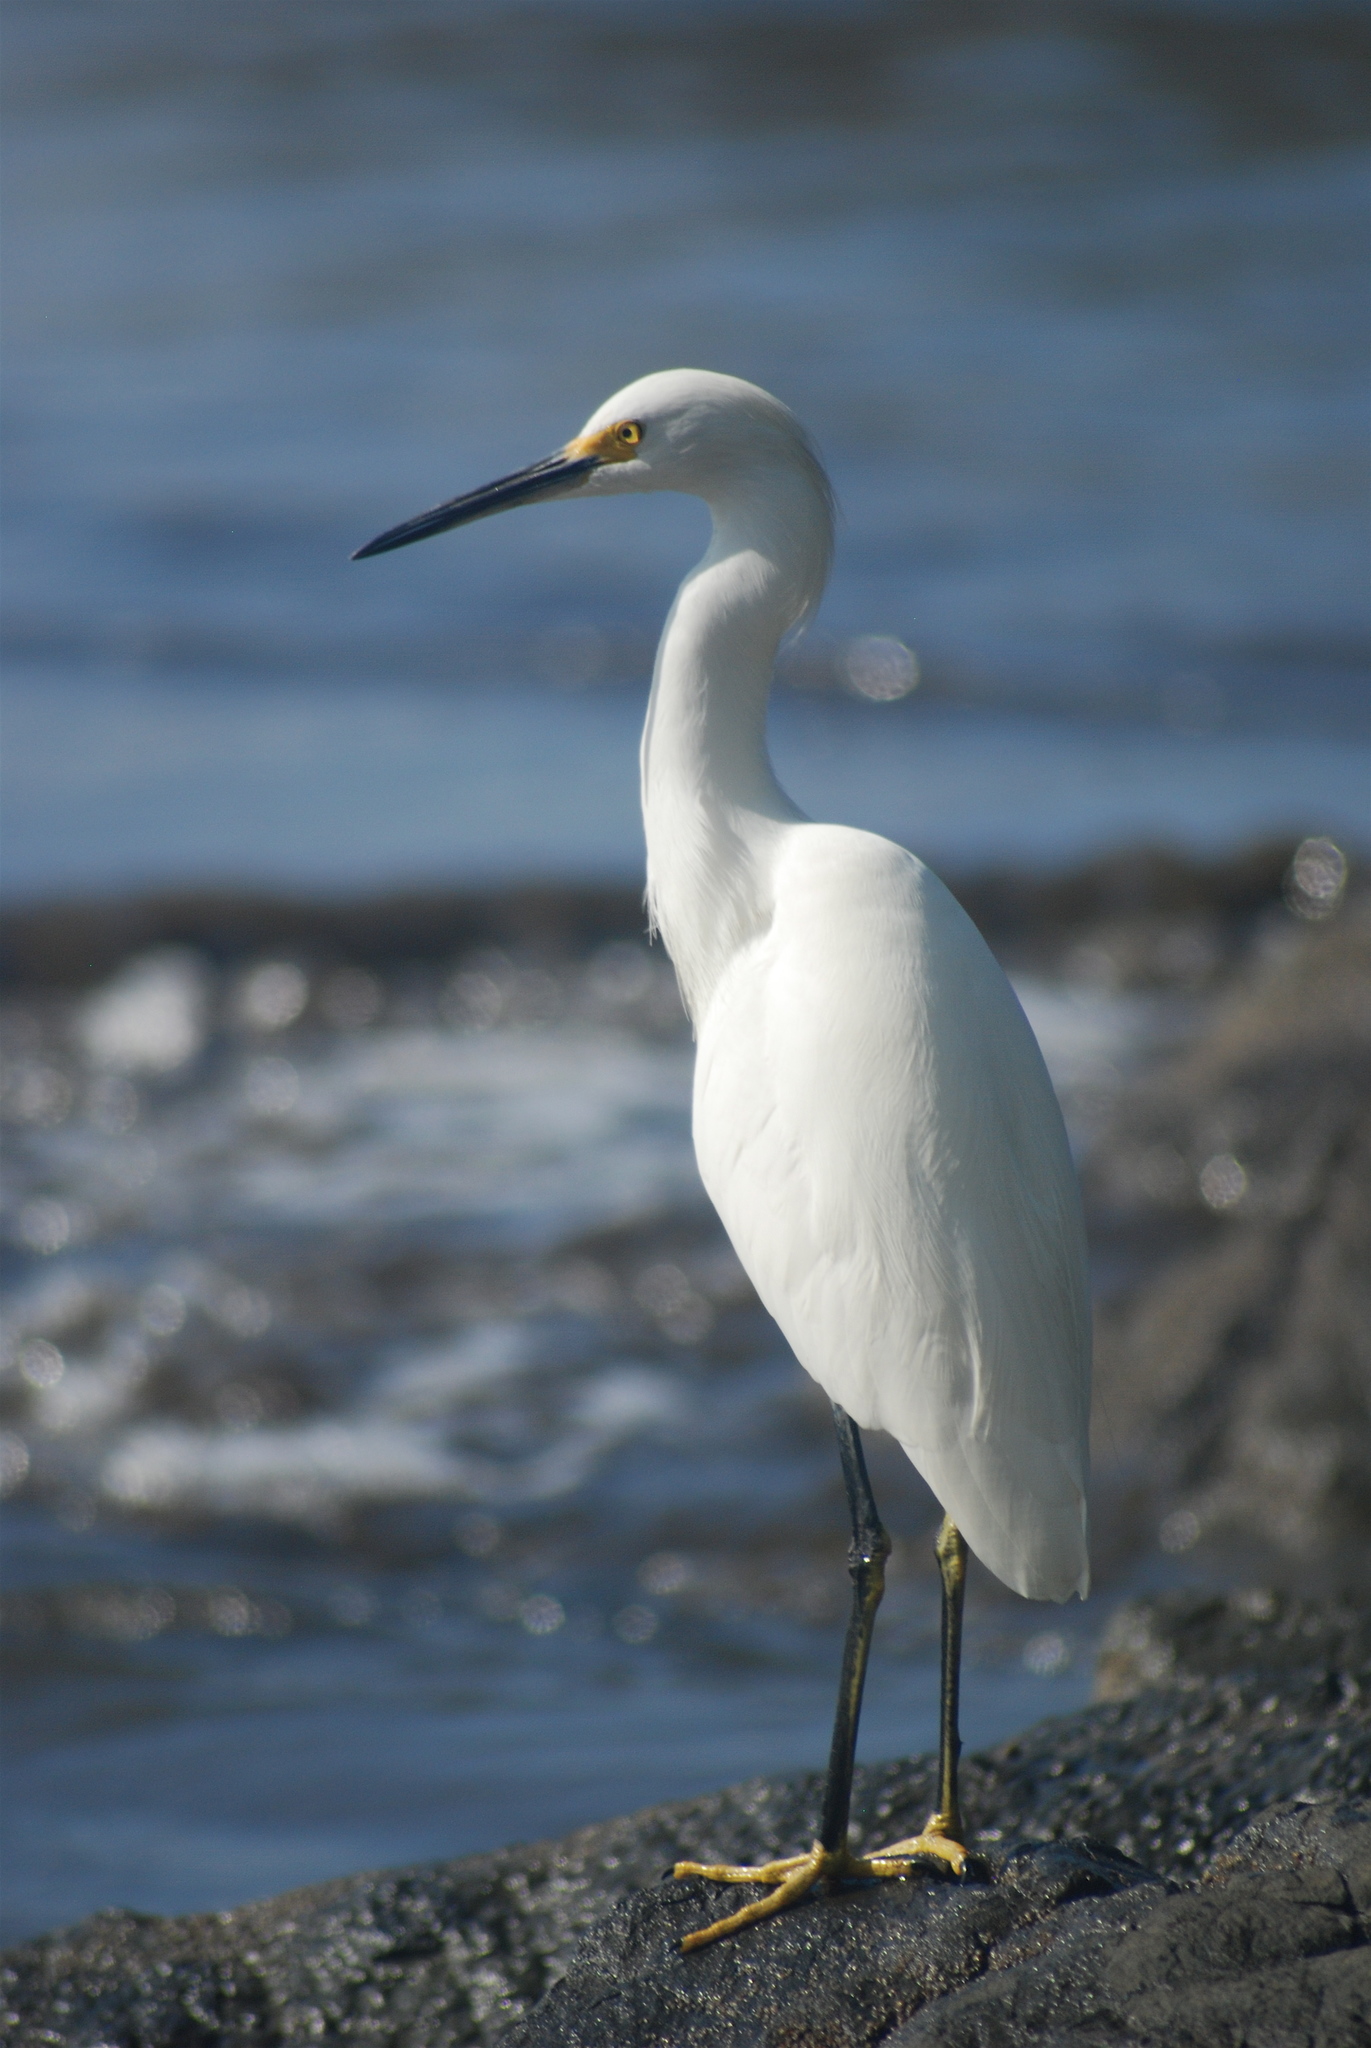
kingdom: Animalia
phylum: Chordata
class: Aves
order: Pelecaniformes
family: Ardeidae
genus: Egretta
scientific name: Egretta thula
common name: Snowy egret
